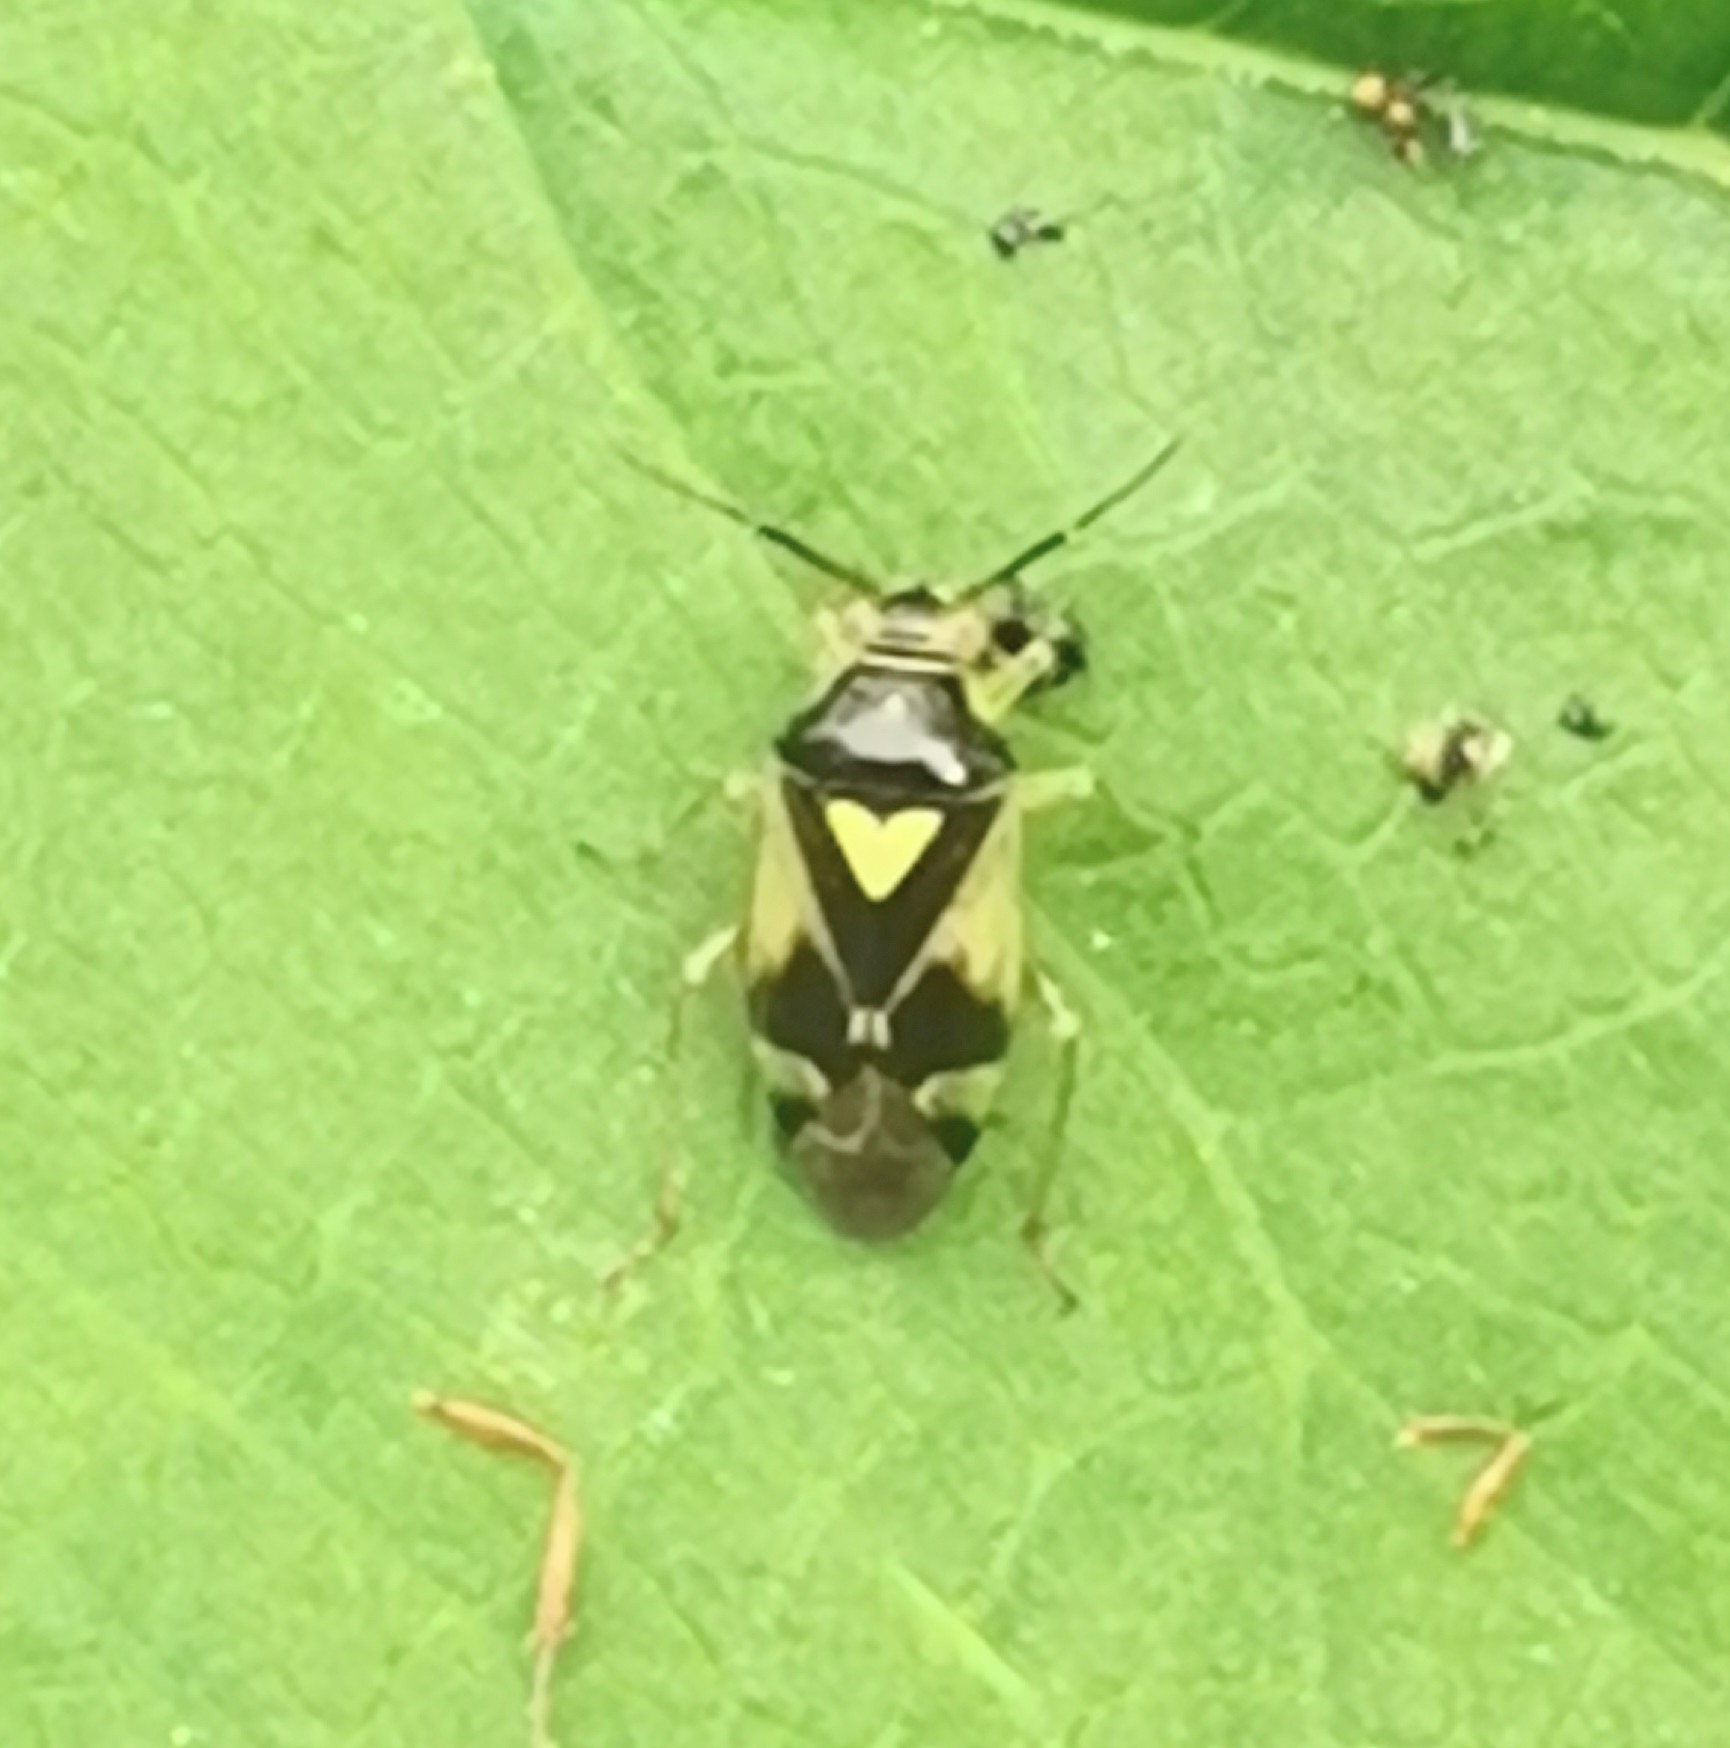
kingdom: Animalia
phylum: Arthropoda
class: Insecta
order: Hemiptera
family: Miridae
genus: Orthops
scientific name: Orthops kalmii
